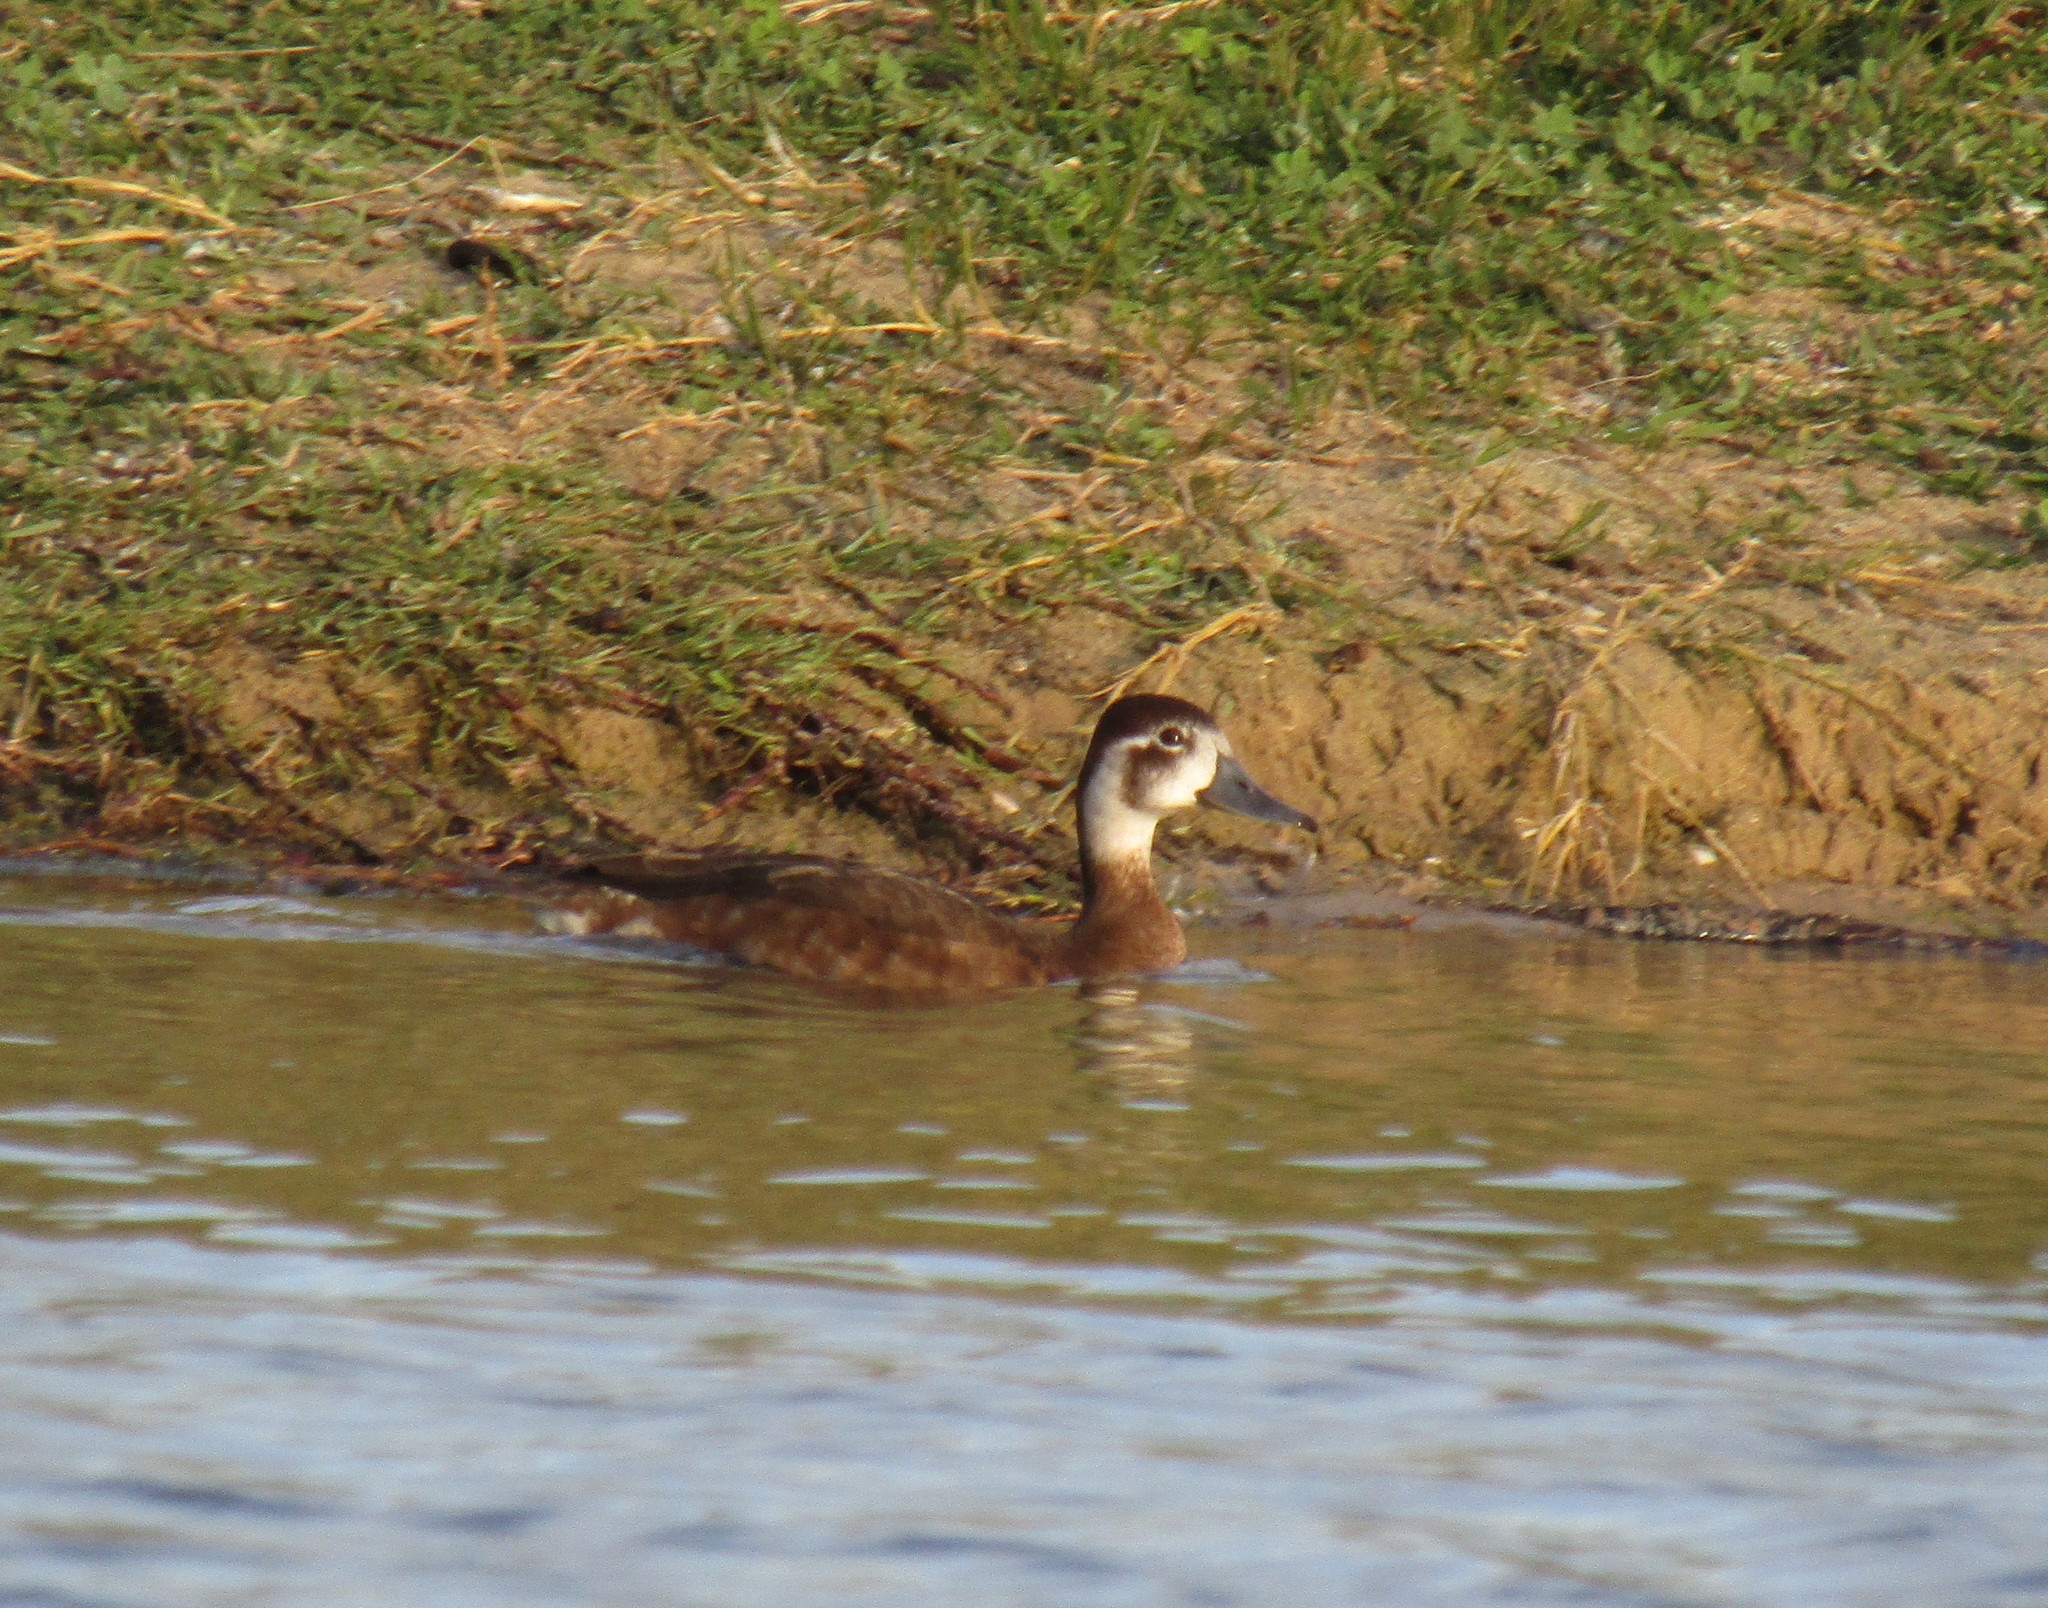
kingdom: Animalia
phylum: Chordata
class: Aves
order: Anseriformes
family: Anatidae
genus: Netta
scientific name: Netta erythrophthalma
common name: Southern pochard
